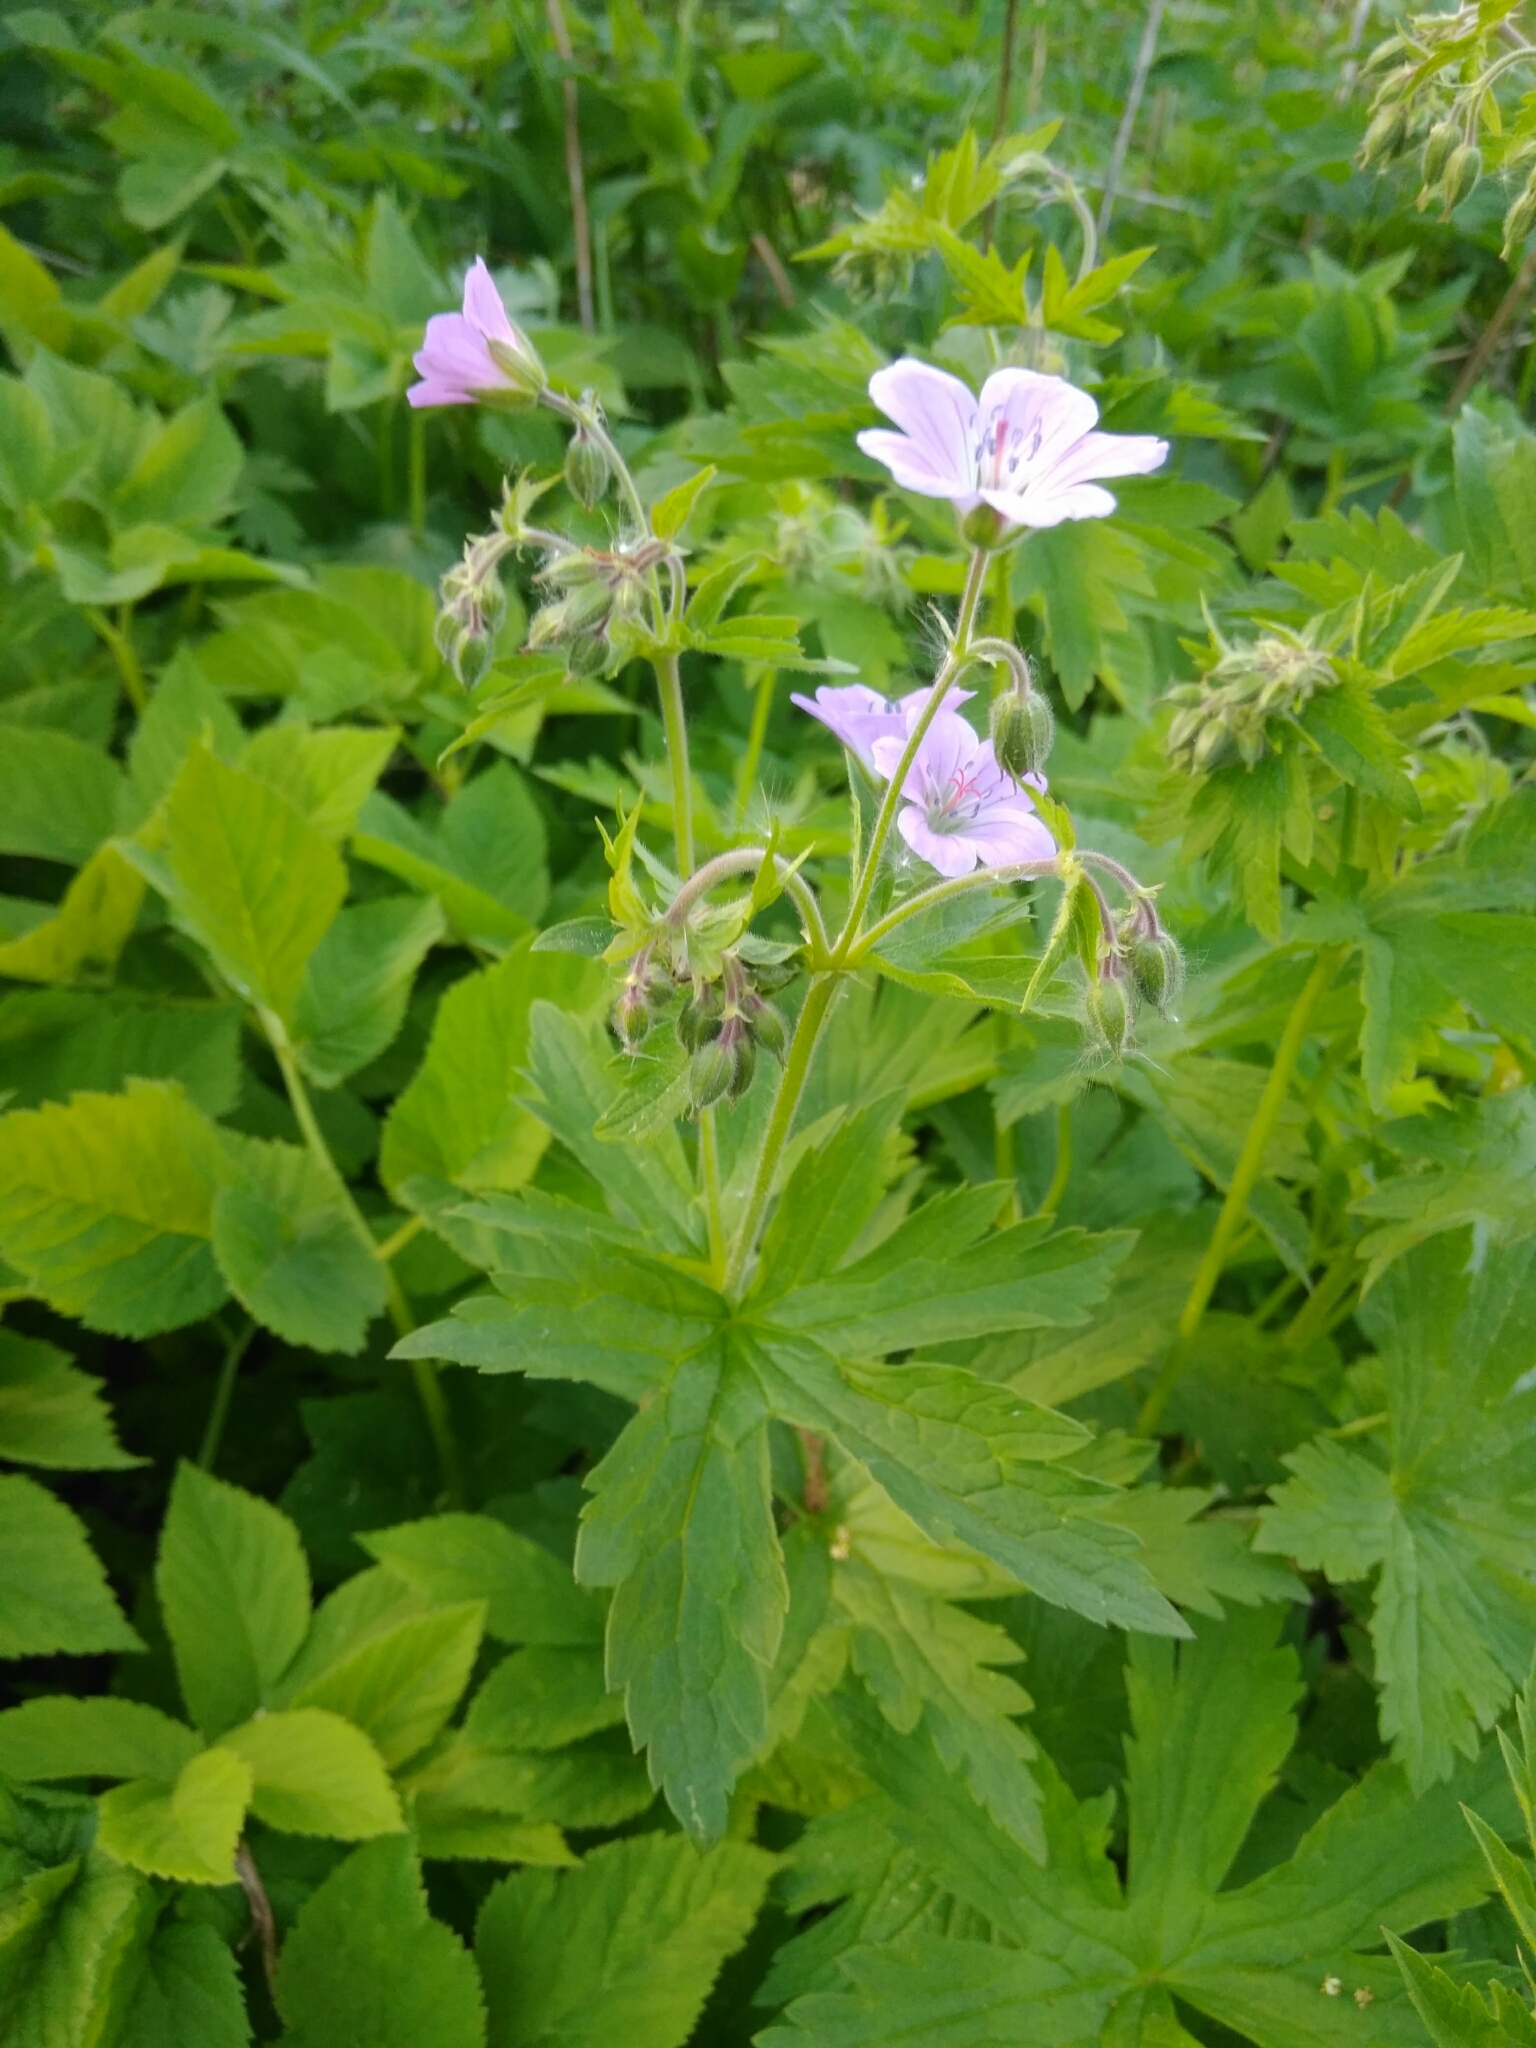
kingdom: Plantae
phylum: Tracheophyta
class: Magnoliopsida
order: Geraniales
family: Geraniaceae
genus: Geranium
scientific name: Geranium sylvaticum
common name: Wood crane's-bill
